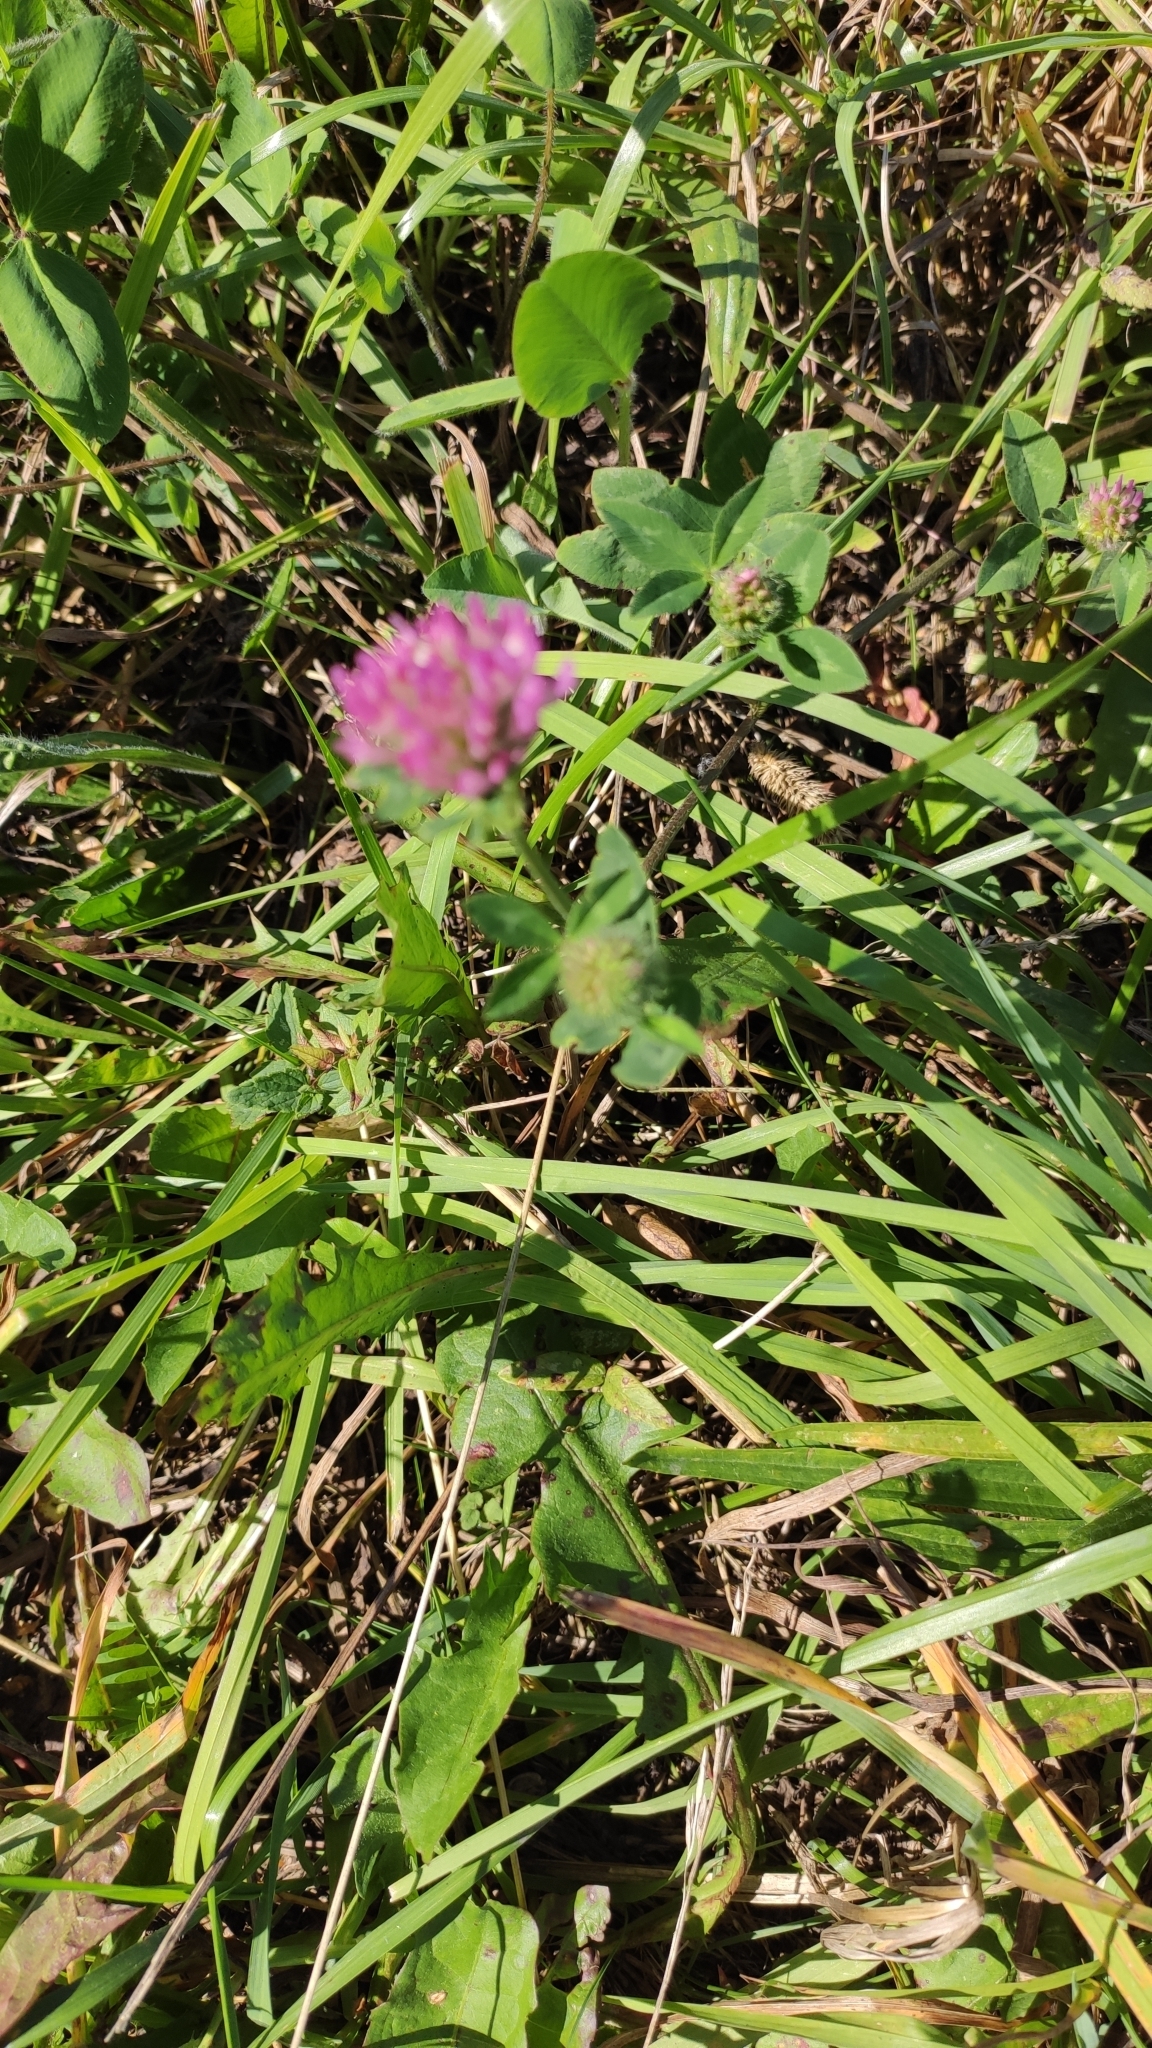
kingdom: Plantae
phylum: Tracheophyta
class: Magnoliopsida
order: Fabales
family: Fabaceae
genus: Trifolium
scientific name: Trifolium pratense
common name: Red clover
